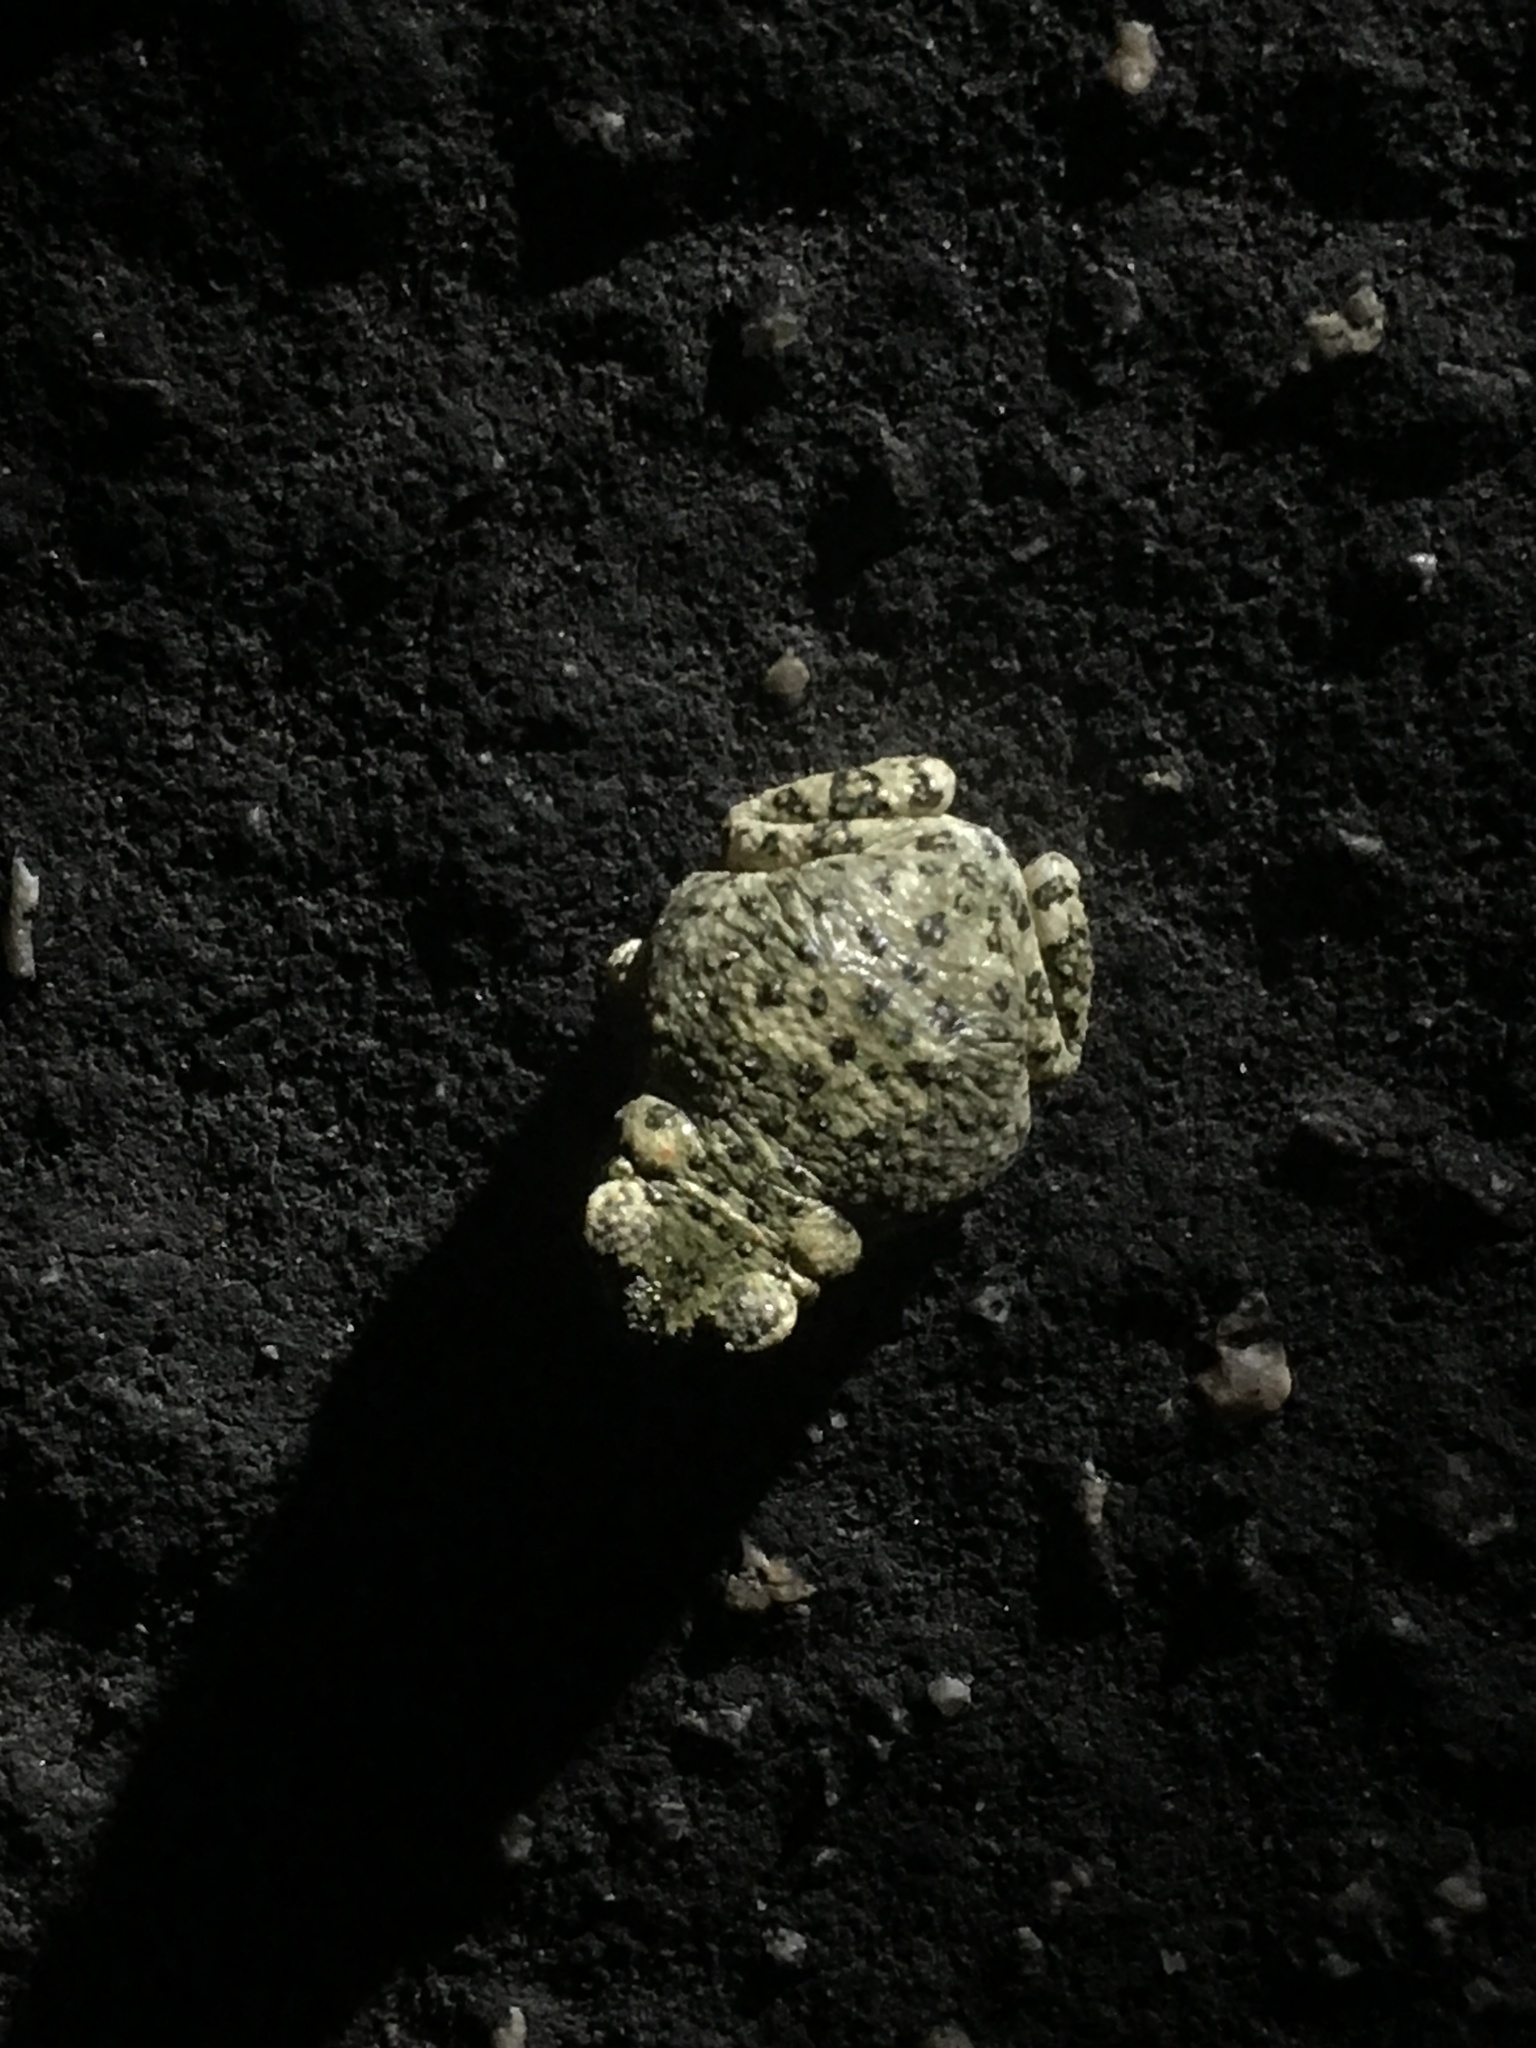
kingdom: Animalia
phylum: Chordata
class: Amphibia
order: Anura
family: Bufonidae
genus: Anaxyrus
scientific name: Anaxyrus punctatus
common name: Red-spotted toad
